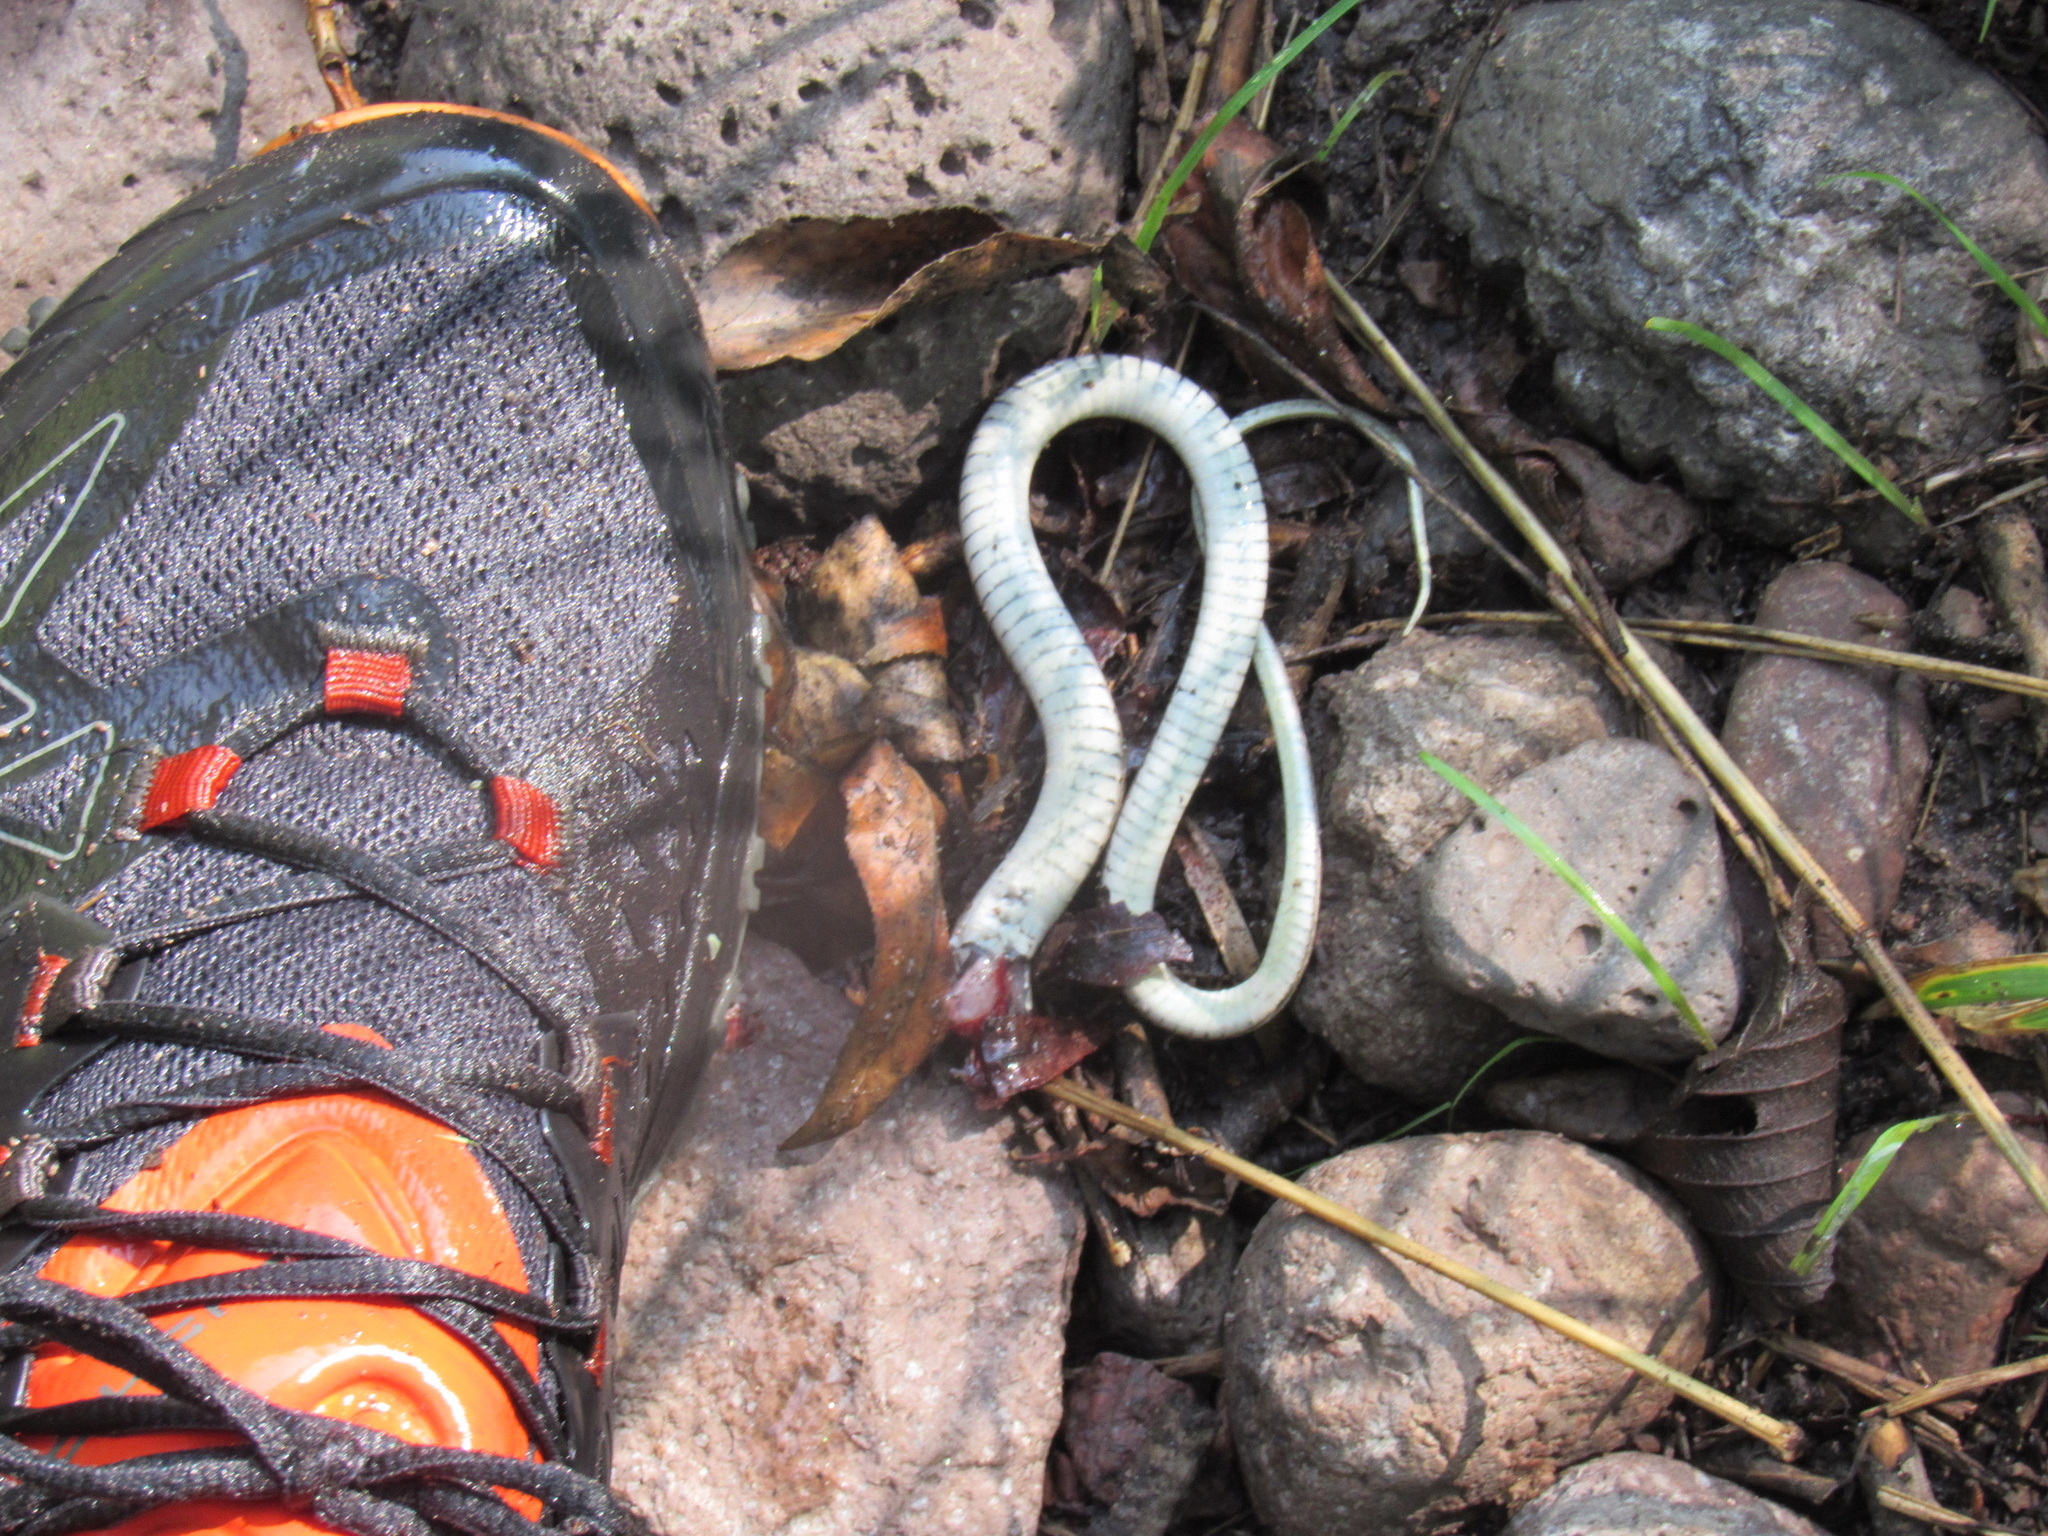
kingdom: Animalia
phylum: Chordata
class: Squamata
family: Colubridae
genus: Thamnophis
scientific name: Thamnophis elegans
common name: Western terrestrial garter snake
